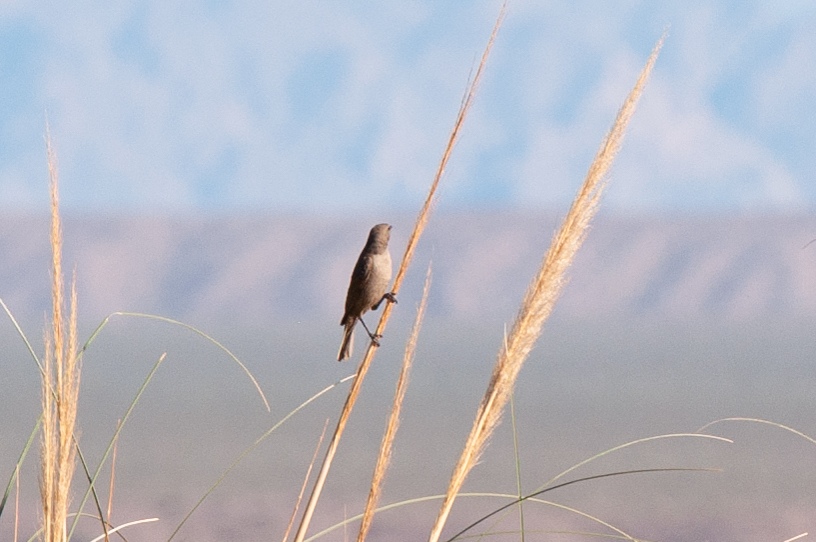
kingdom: Animalia
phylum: Chordata
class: Aves
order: Passeriformes
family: Icteridae
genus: Molothrus
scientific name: Molothrus bonariensis
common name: Shiny cowbird
